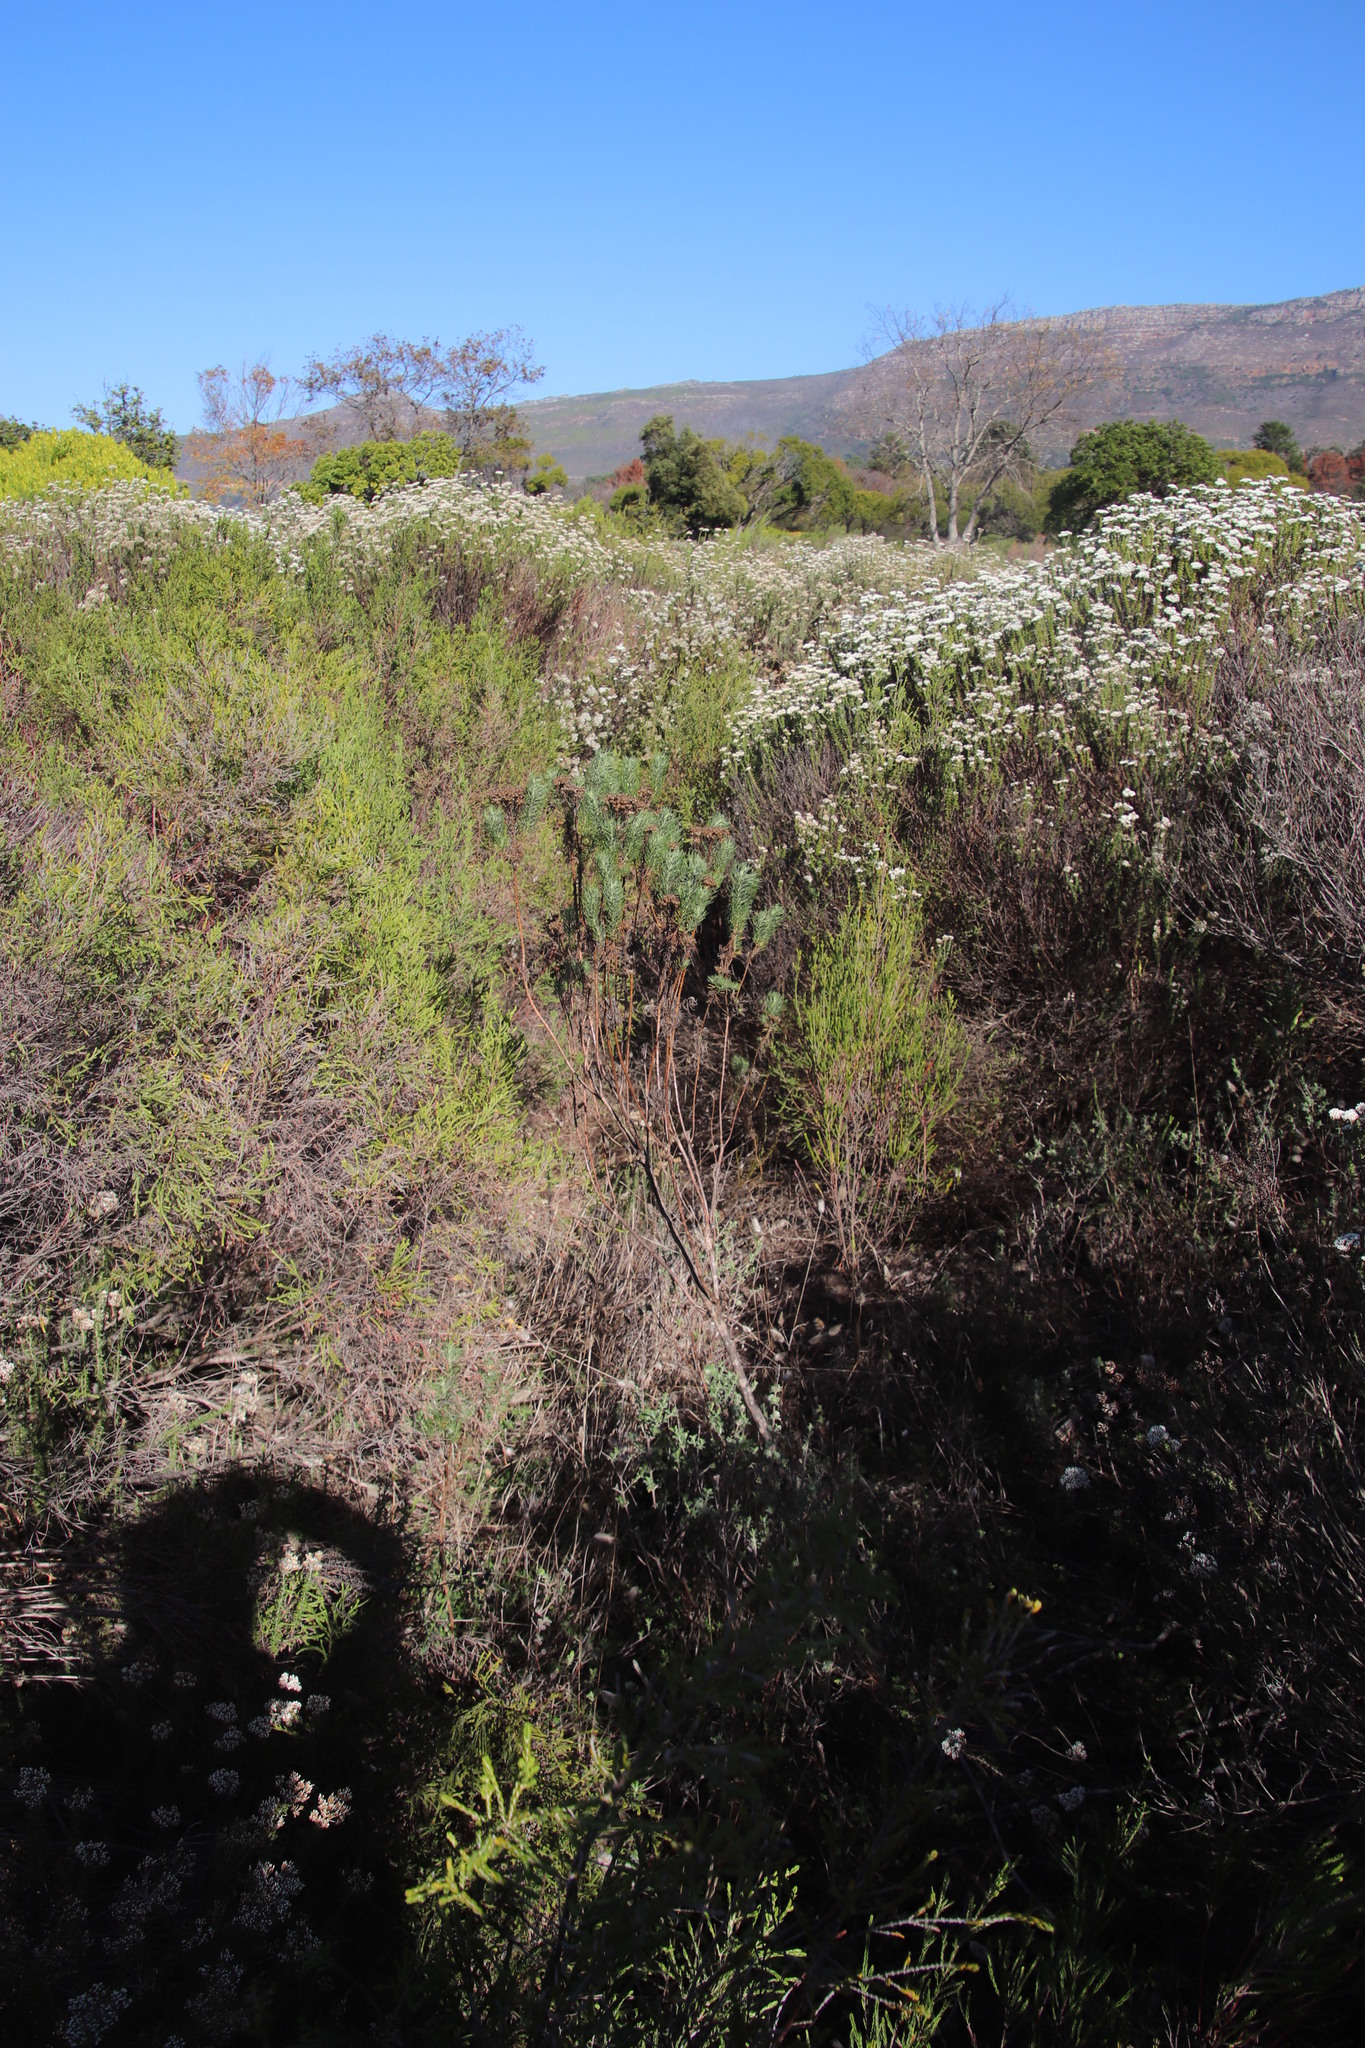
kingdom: Plantae
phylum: Tracheophyta
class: Magnoliopsida
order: Asterales
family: Asteraceae
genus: Athanasia
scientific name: Athanasia crithmifolia
